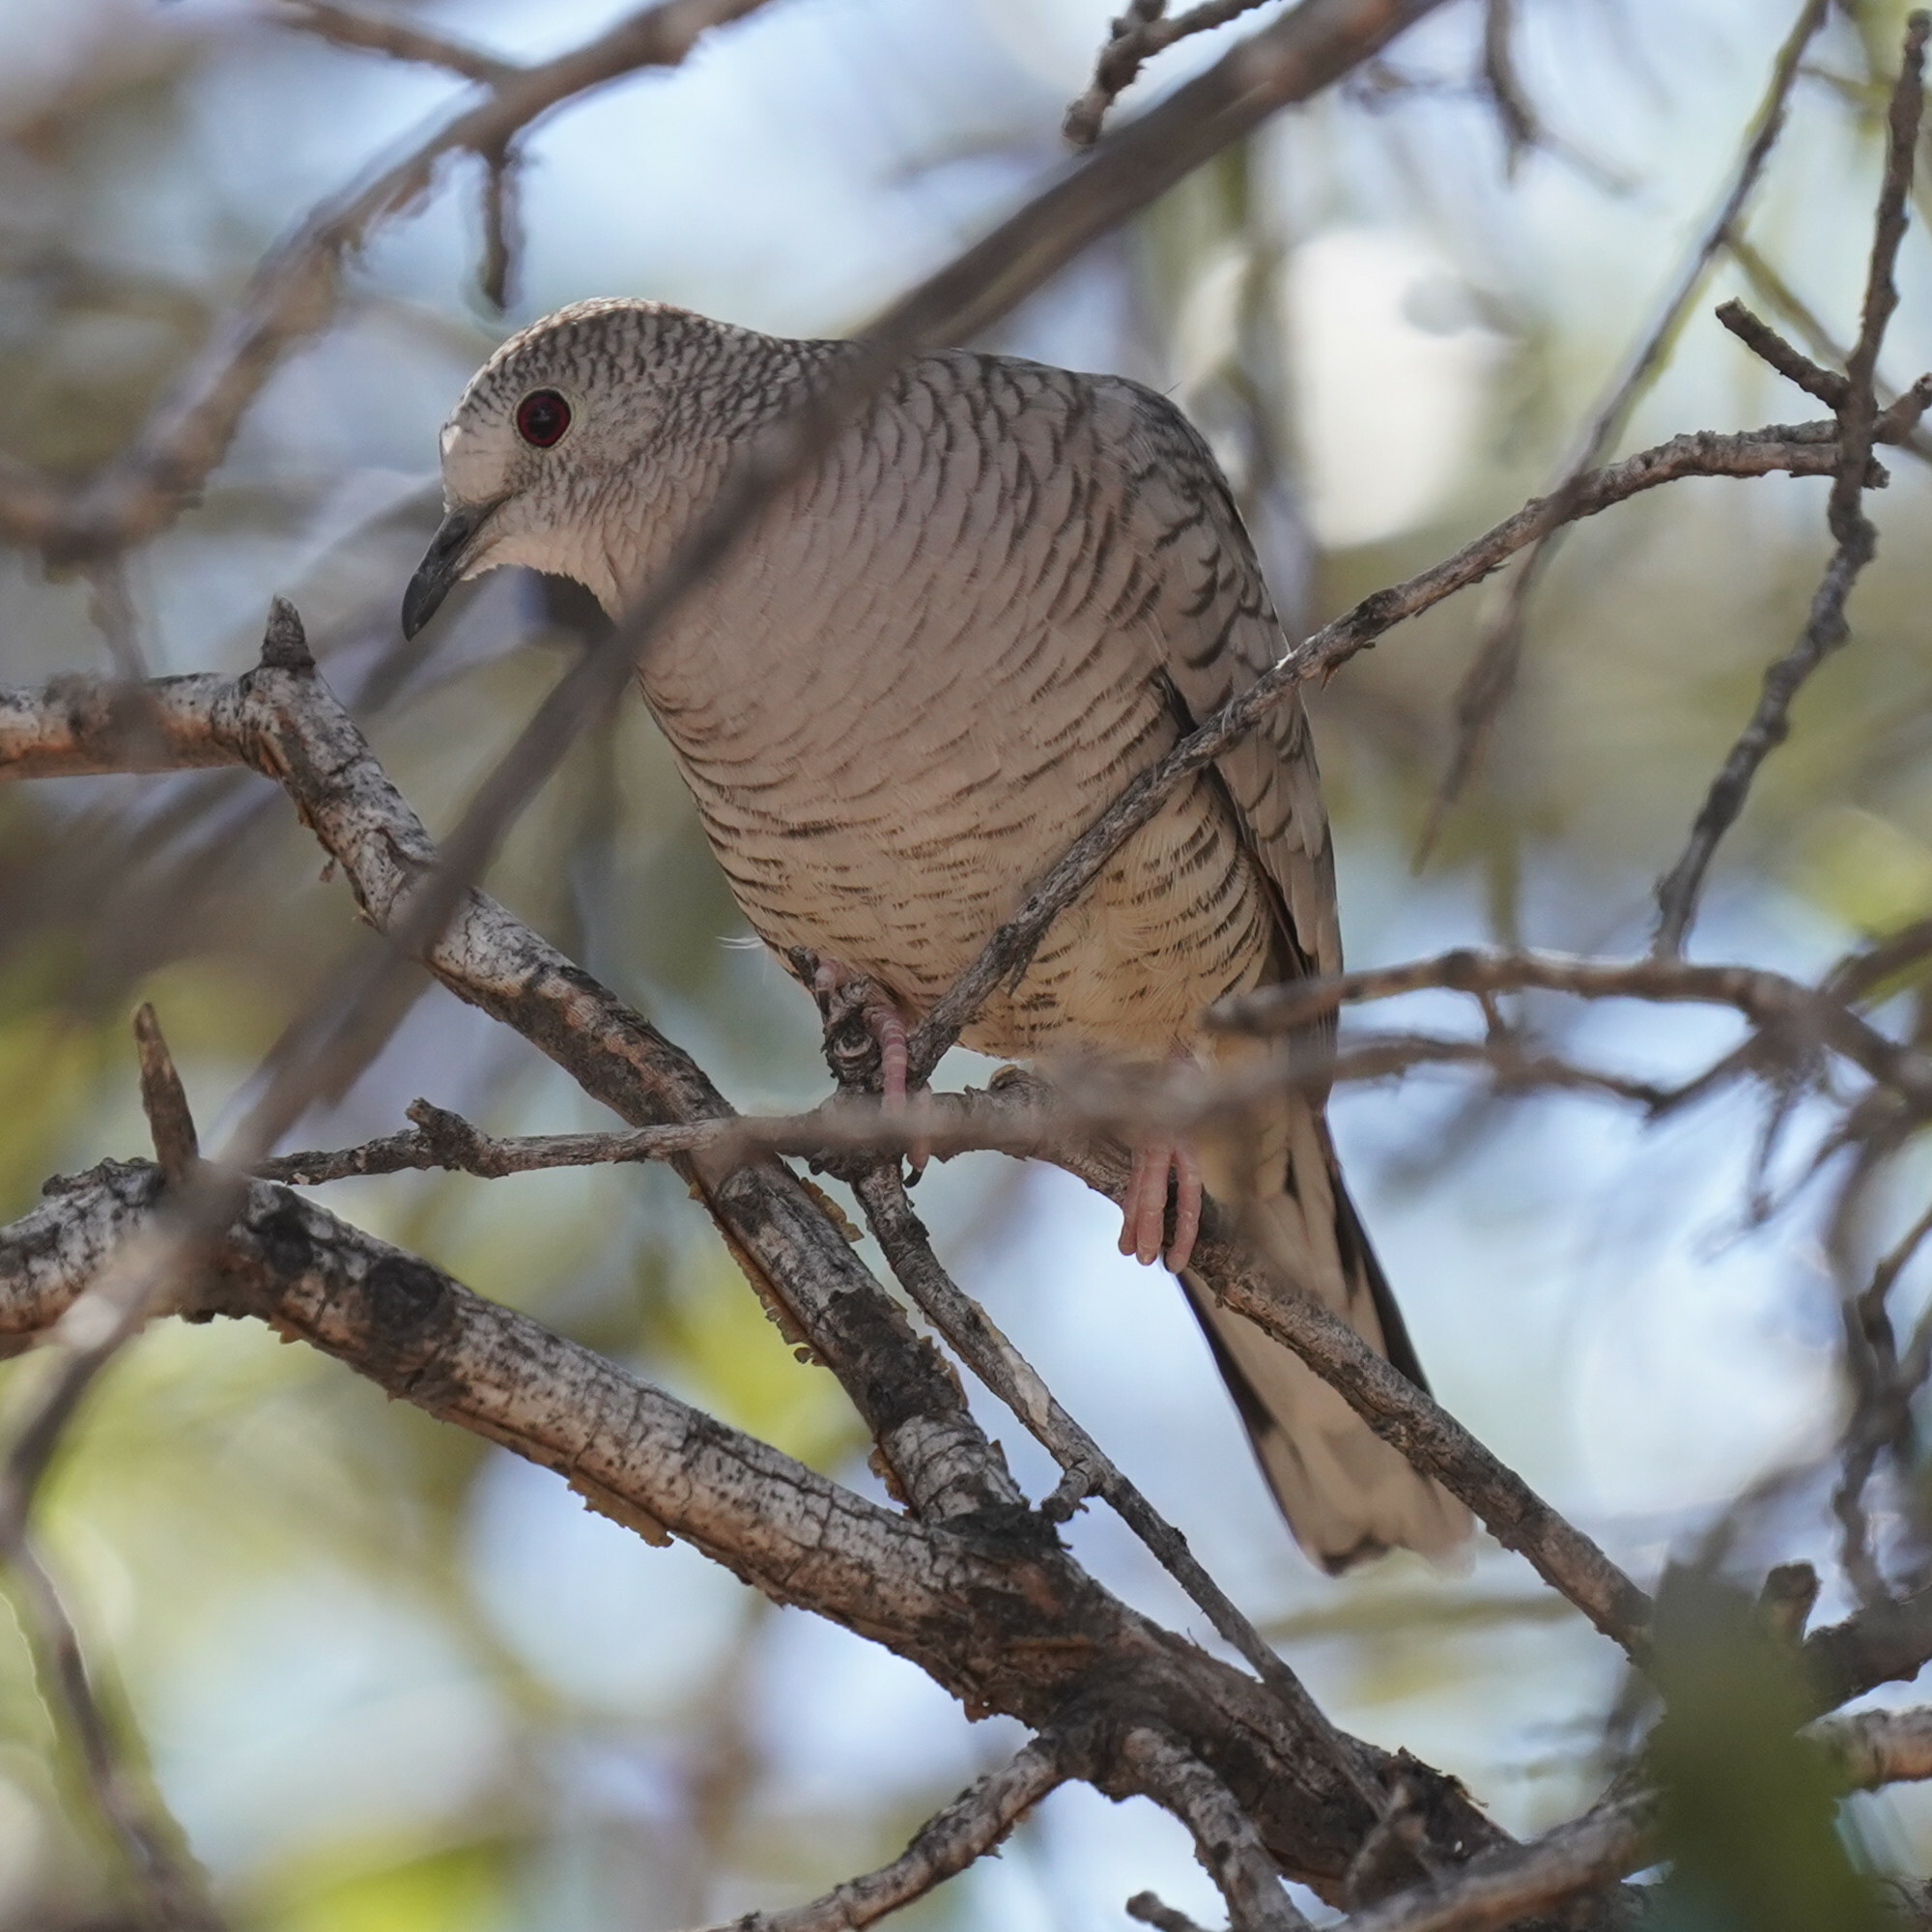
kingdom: Animalia
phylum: Chordata
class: Aves
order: Columbiformes
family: Columbidae
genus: Columbina
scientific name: Columbina inca
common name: Inca dove
